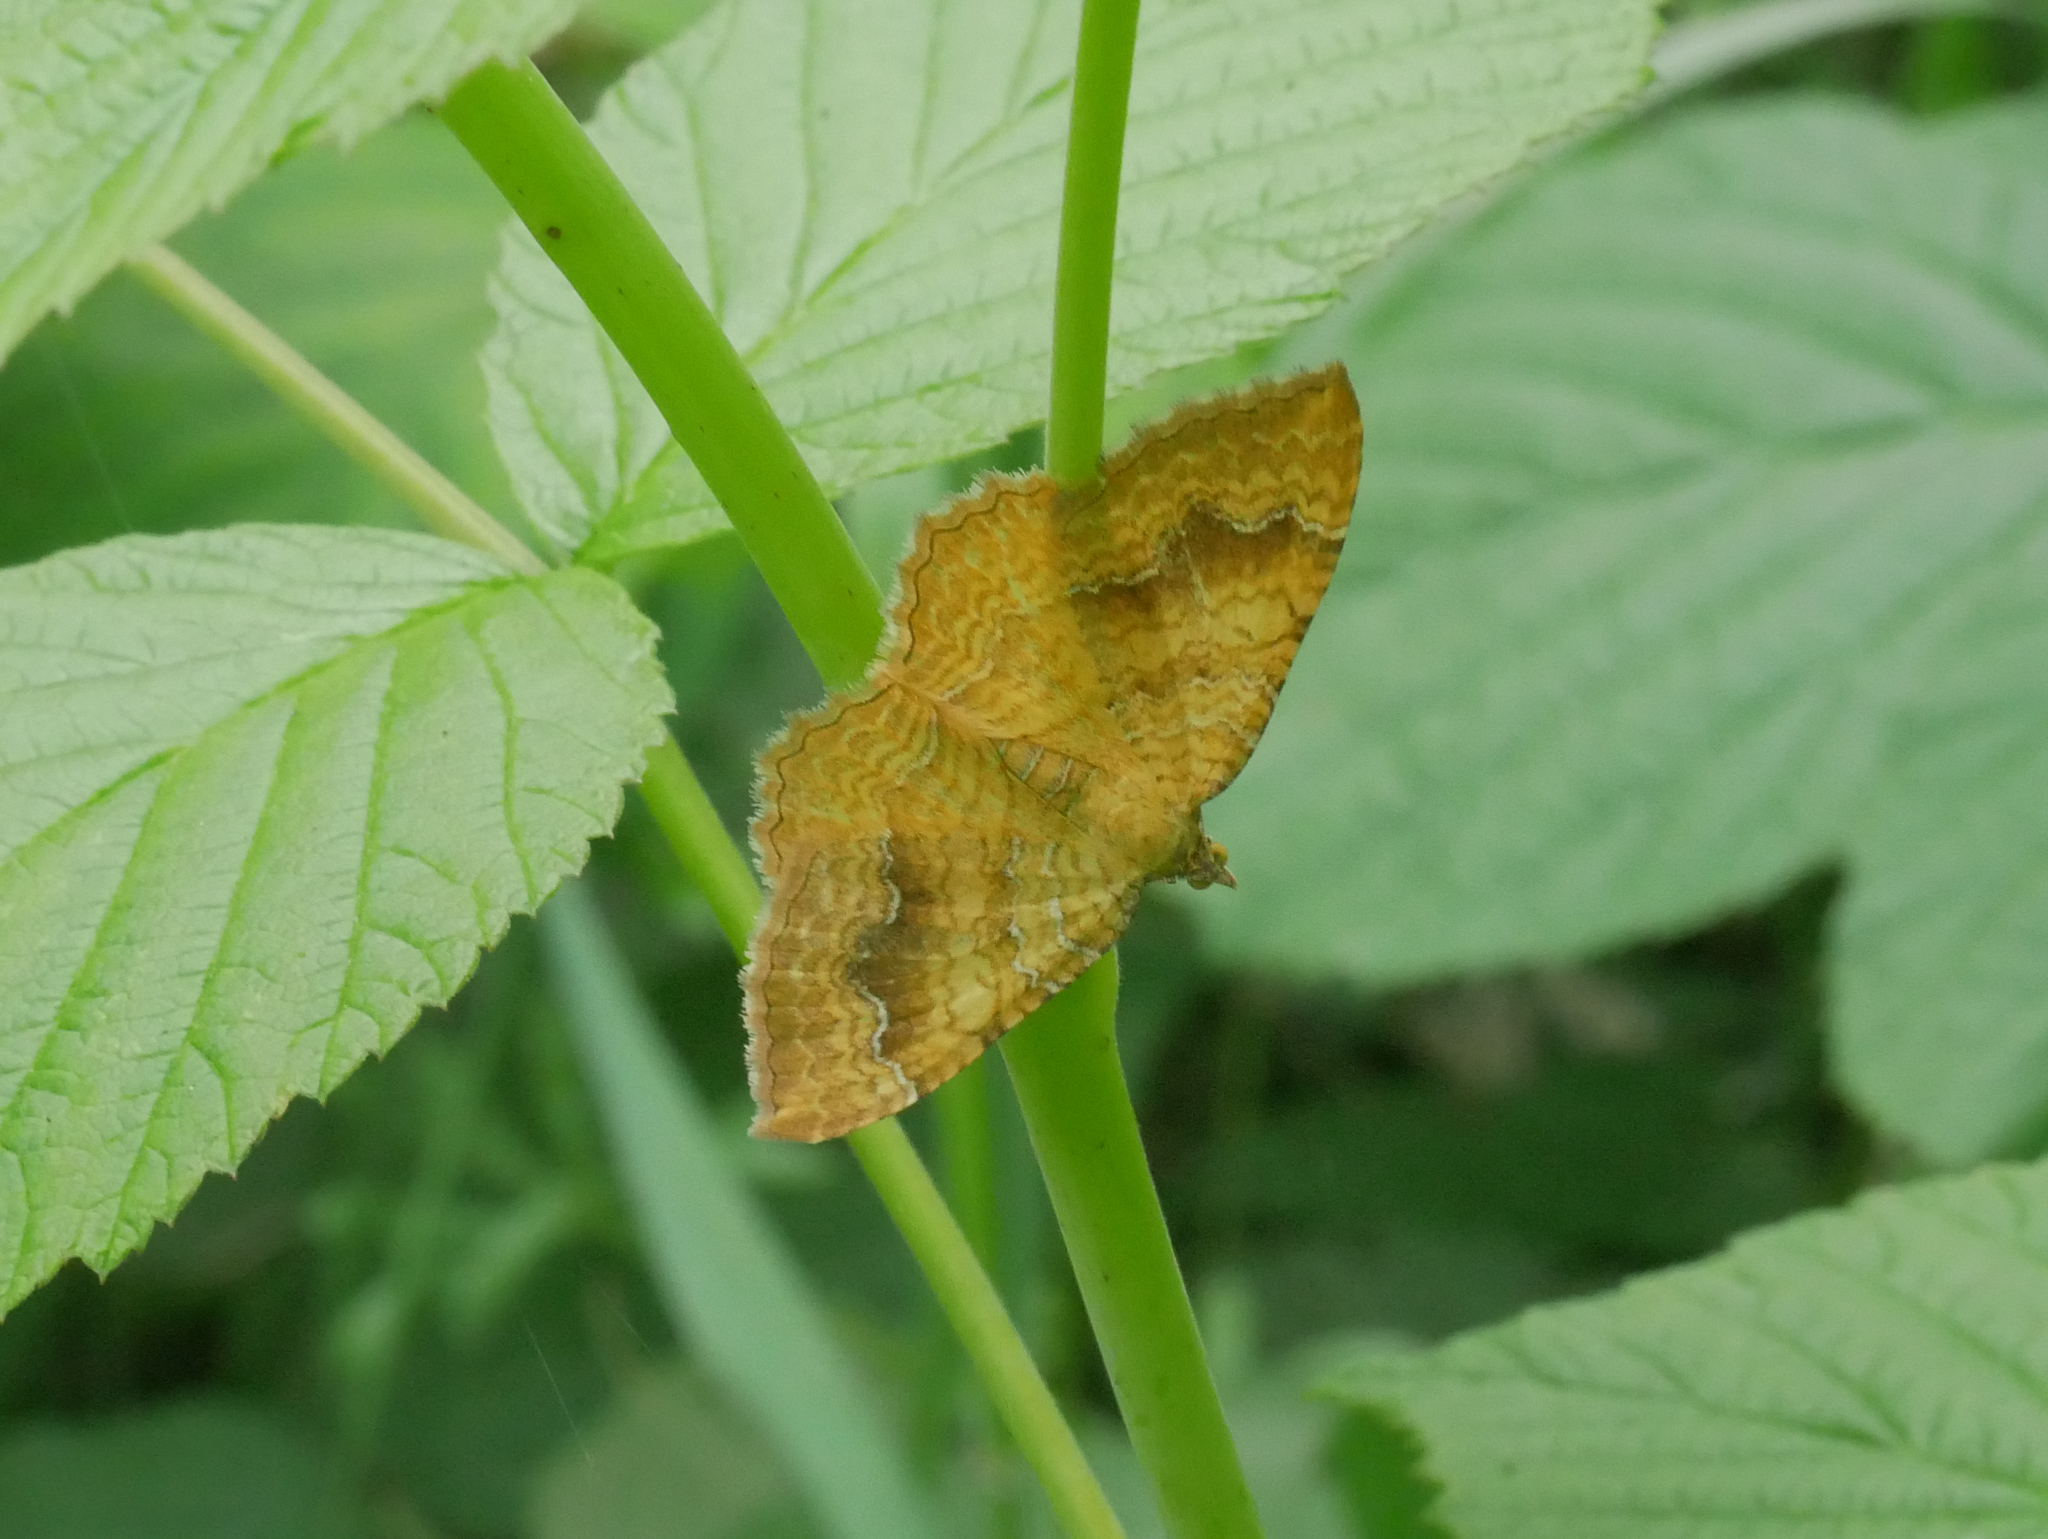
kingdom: Animalia
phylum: Arthropoda
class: Insecta
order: Lepidoptera
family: Geometridae
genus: Camptogramma
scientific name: Camptogramma bilineata
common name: Yellow shell
